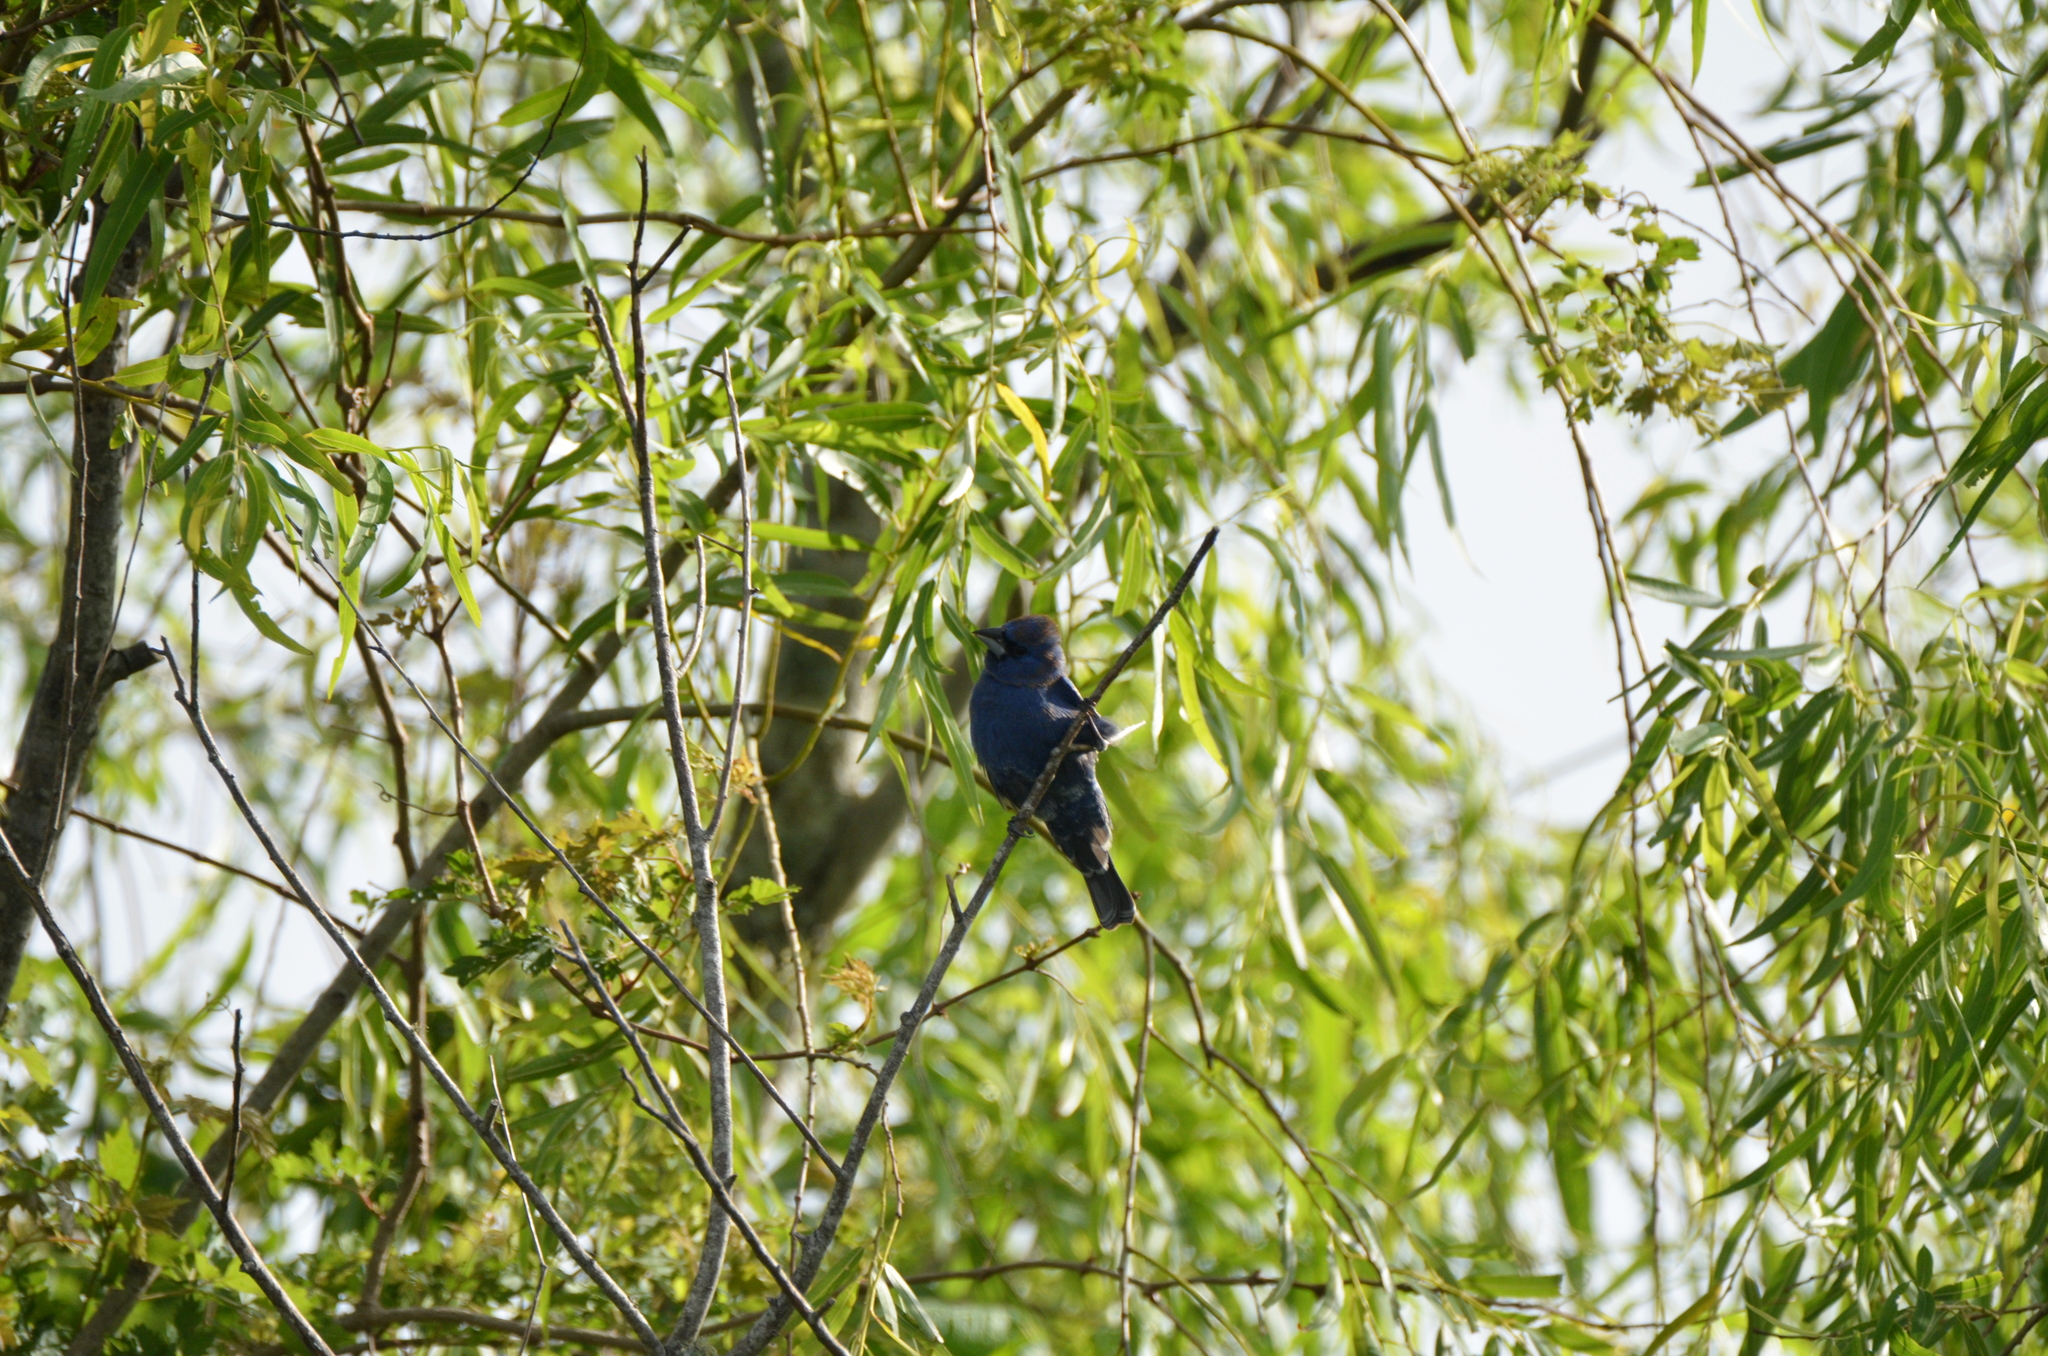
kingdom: Animalia
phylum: Chordata
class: Aves
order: Passeriformes
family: Cardinalidae
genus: Passerina
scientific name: Passerina caerulea
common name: Blue grosbeak
